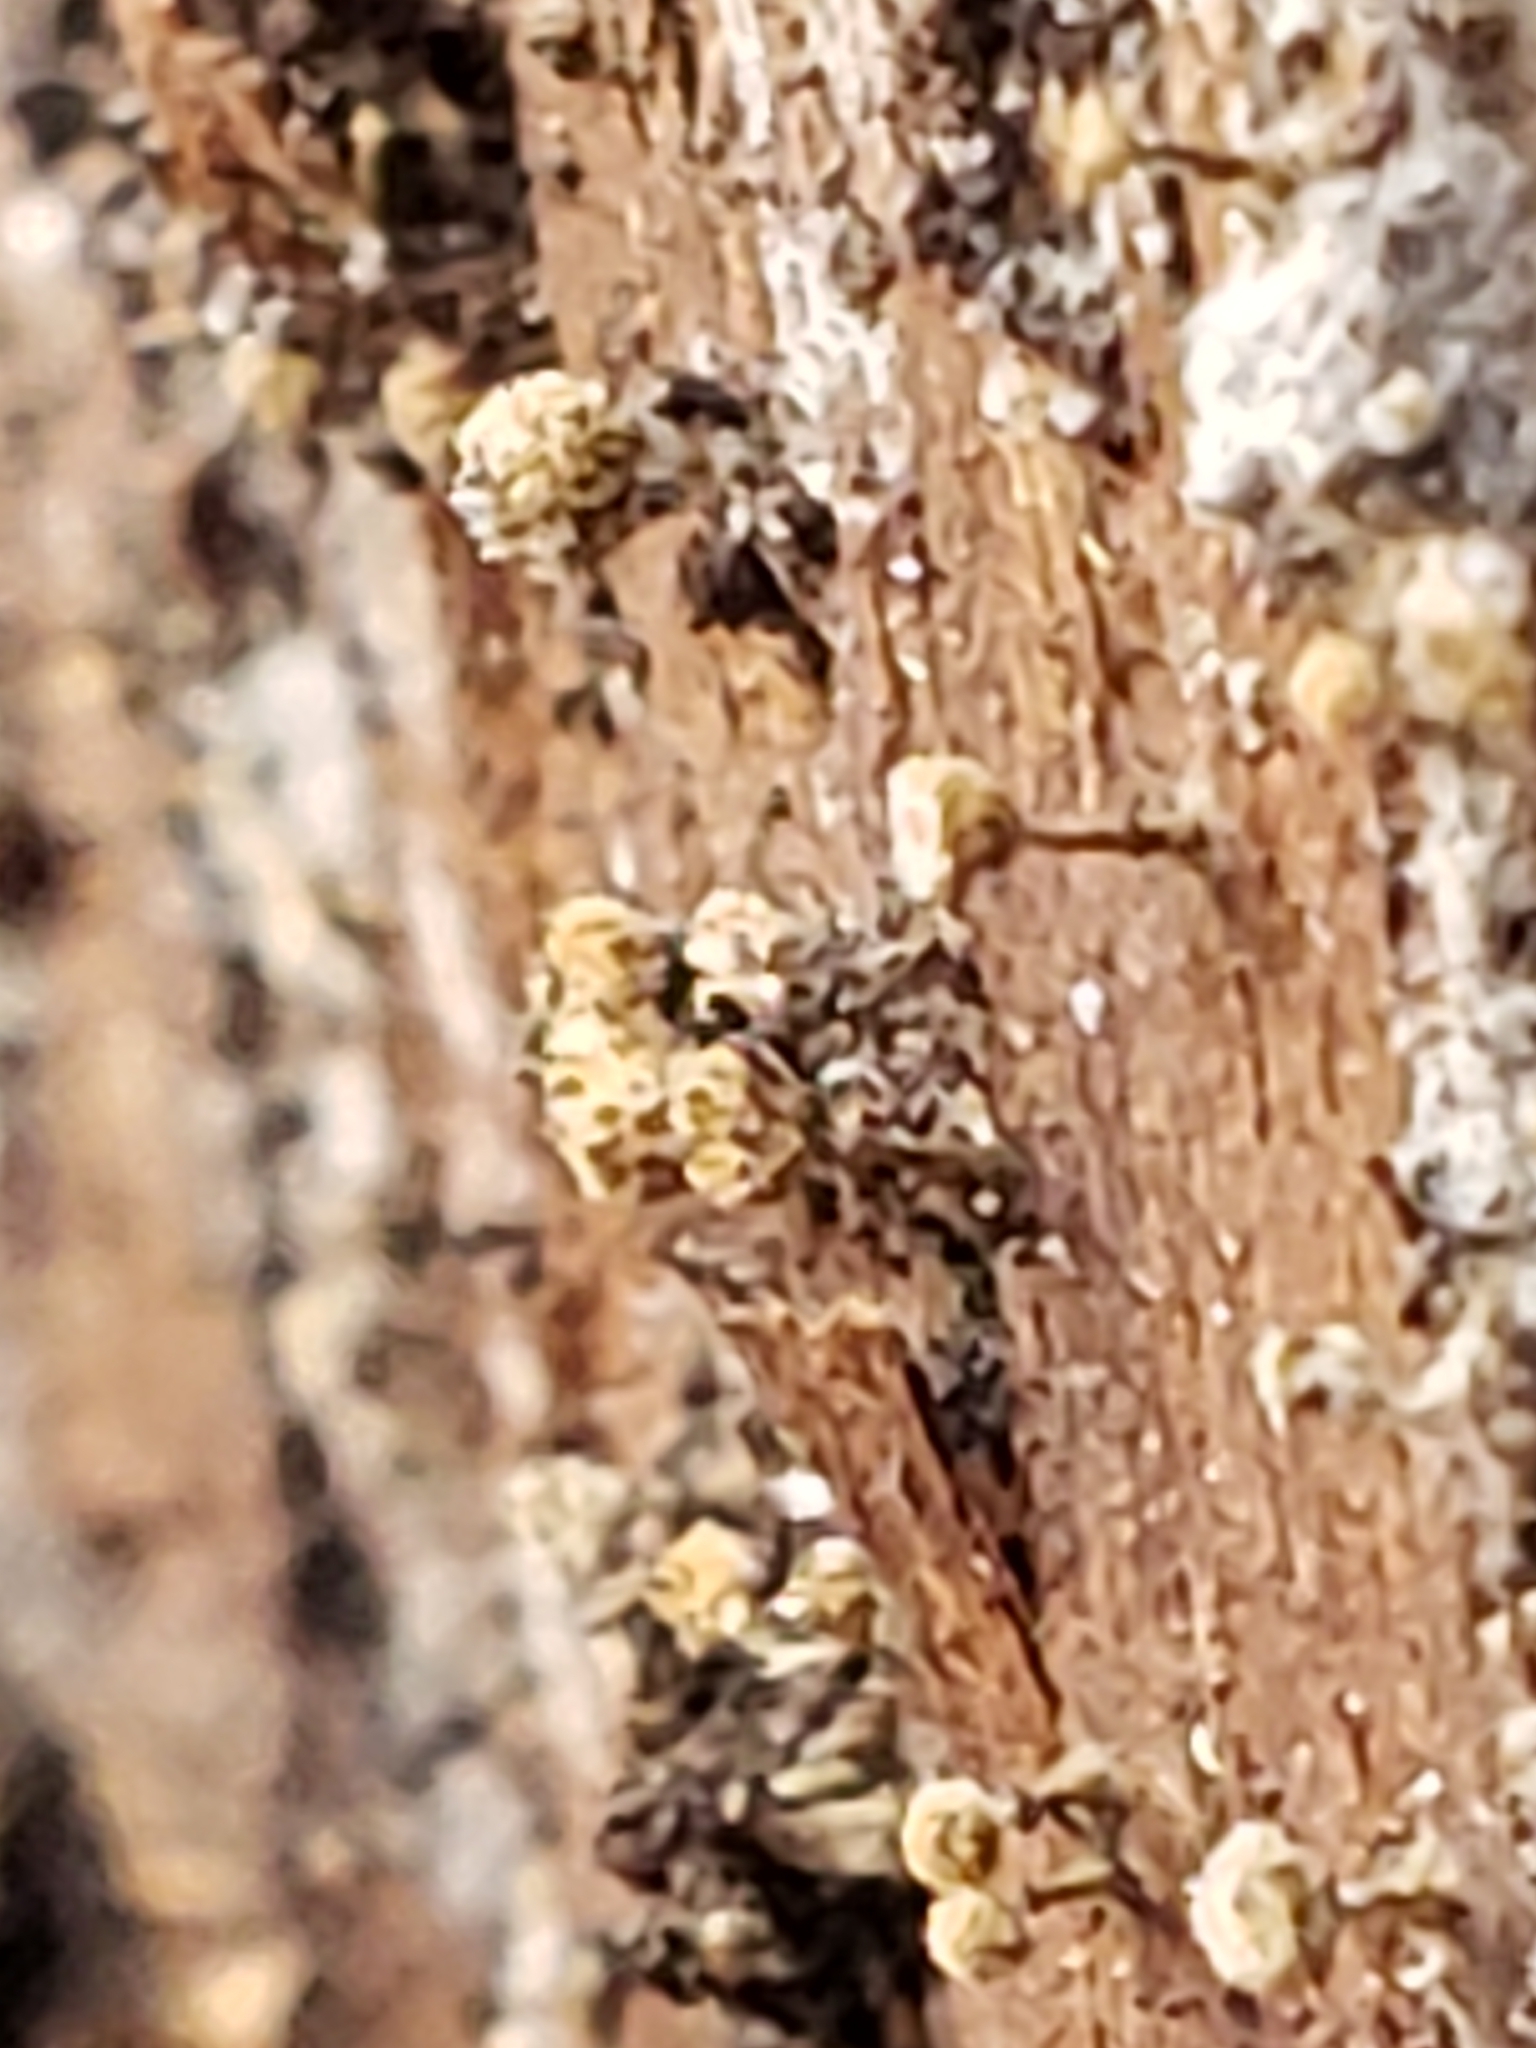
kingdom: Fungi
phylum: Basidiomycota
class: Atractiellomycetes
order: Atractiellales
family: Phleogenaceae
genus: Phleogena
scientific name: Phleogena faginea
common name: Fenugreek stalkball
